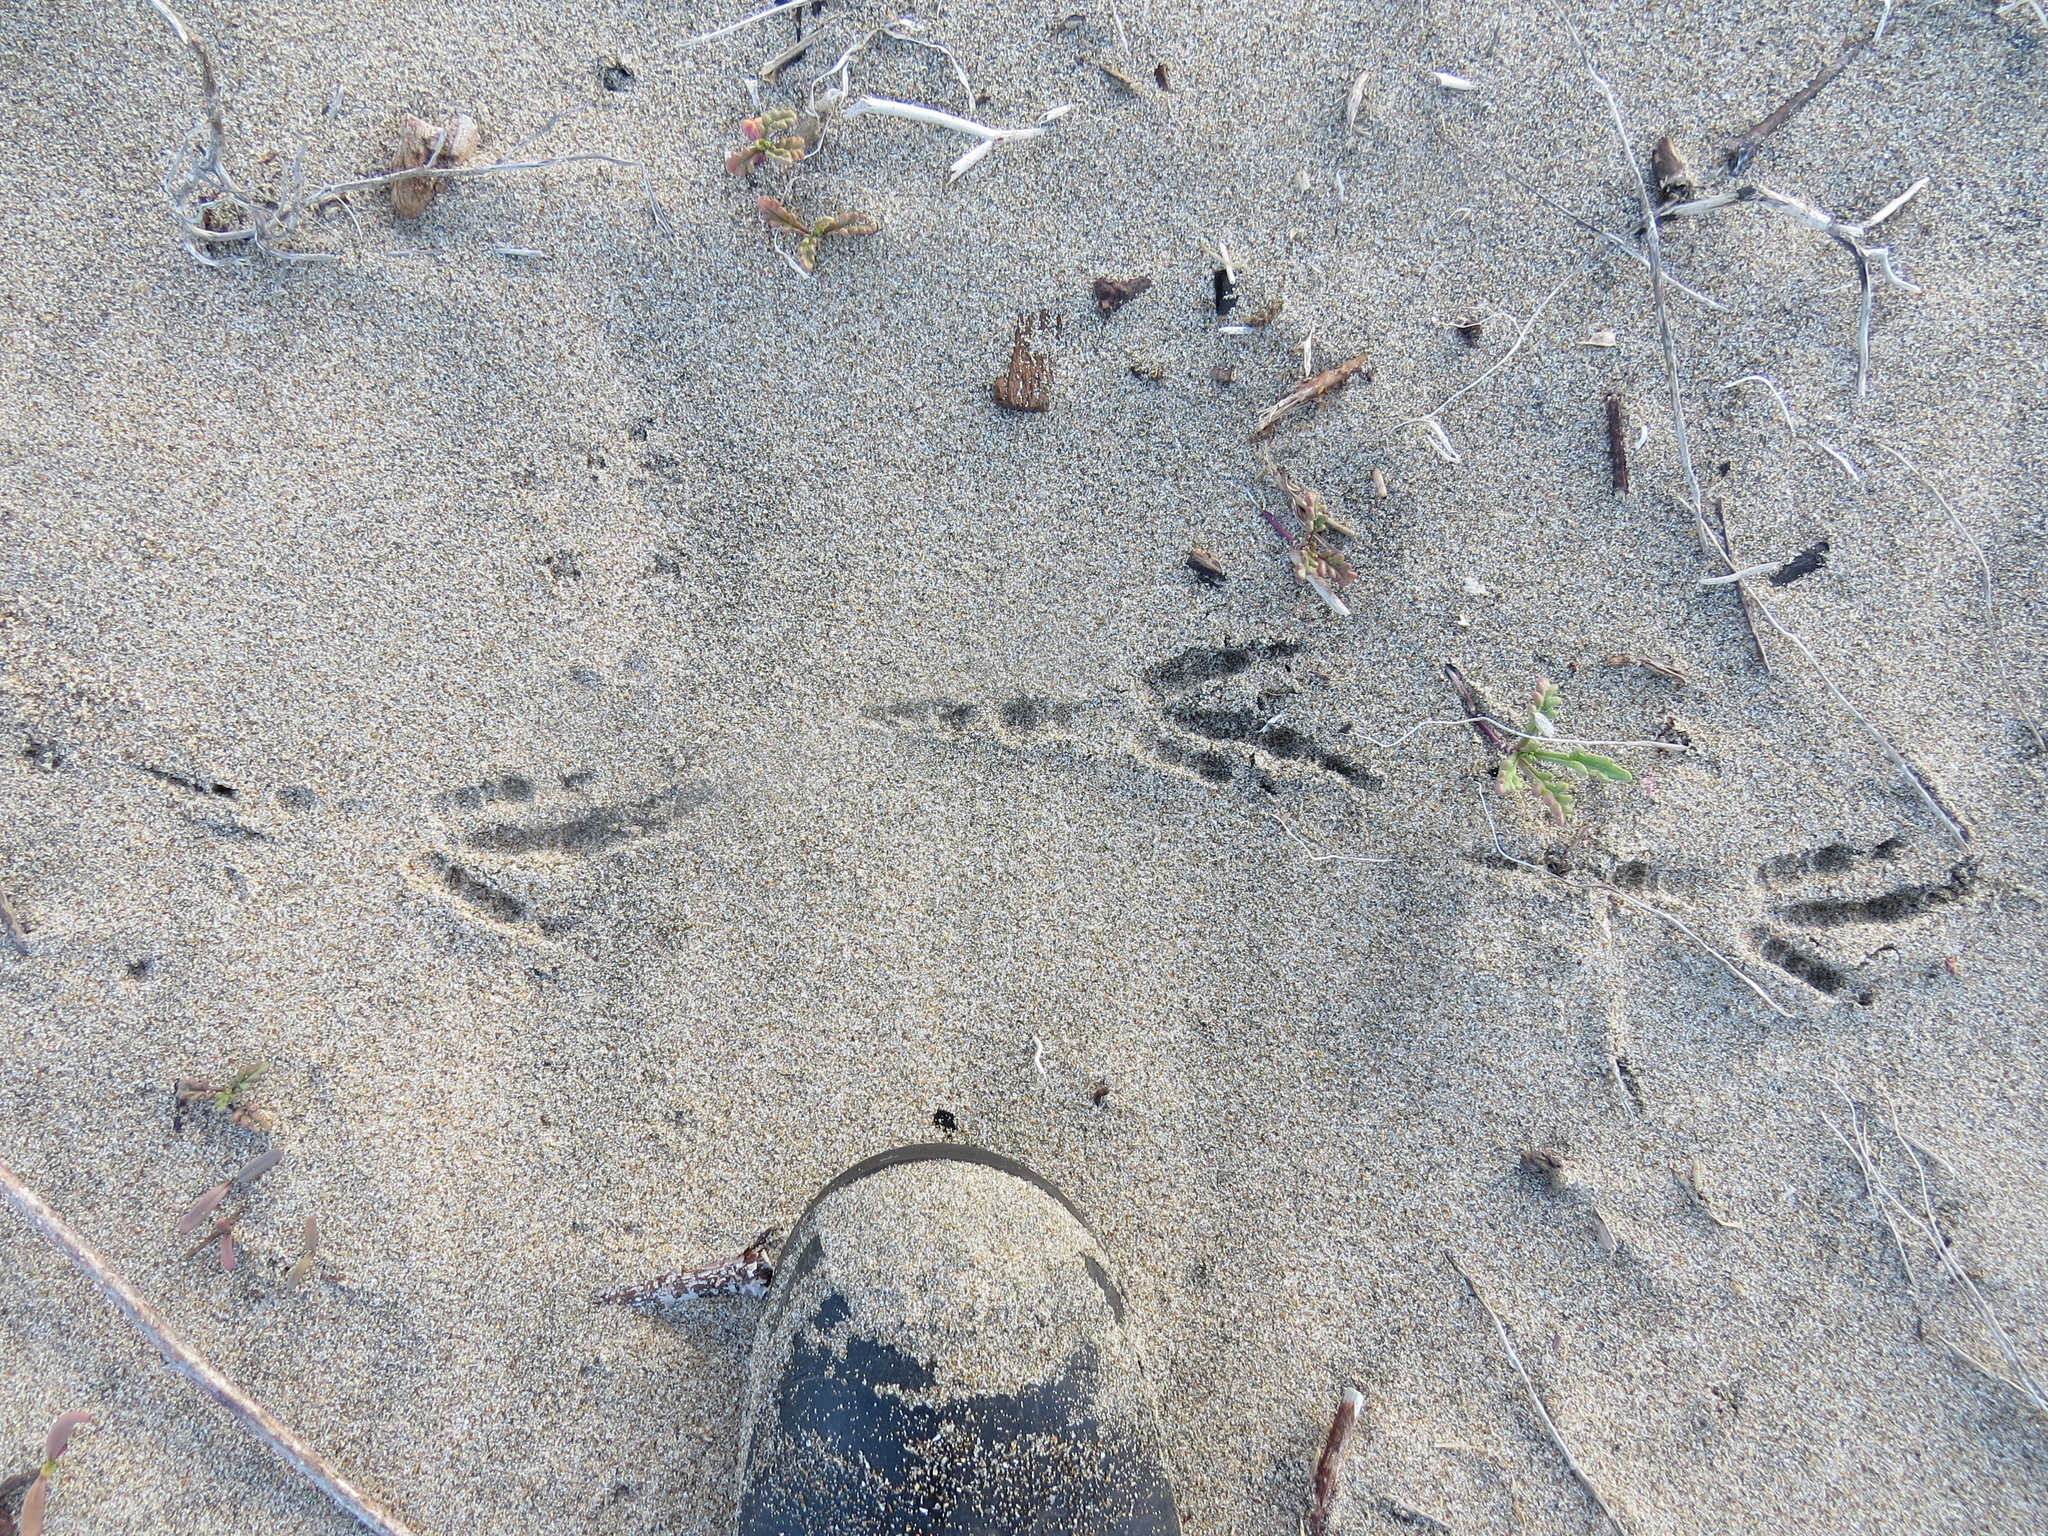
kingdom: Animalia
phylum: Chordata
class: Aves
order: Passeriformes
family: Corvidae
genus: Corvus
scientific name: Corvus corax
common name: Common raven
